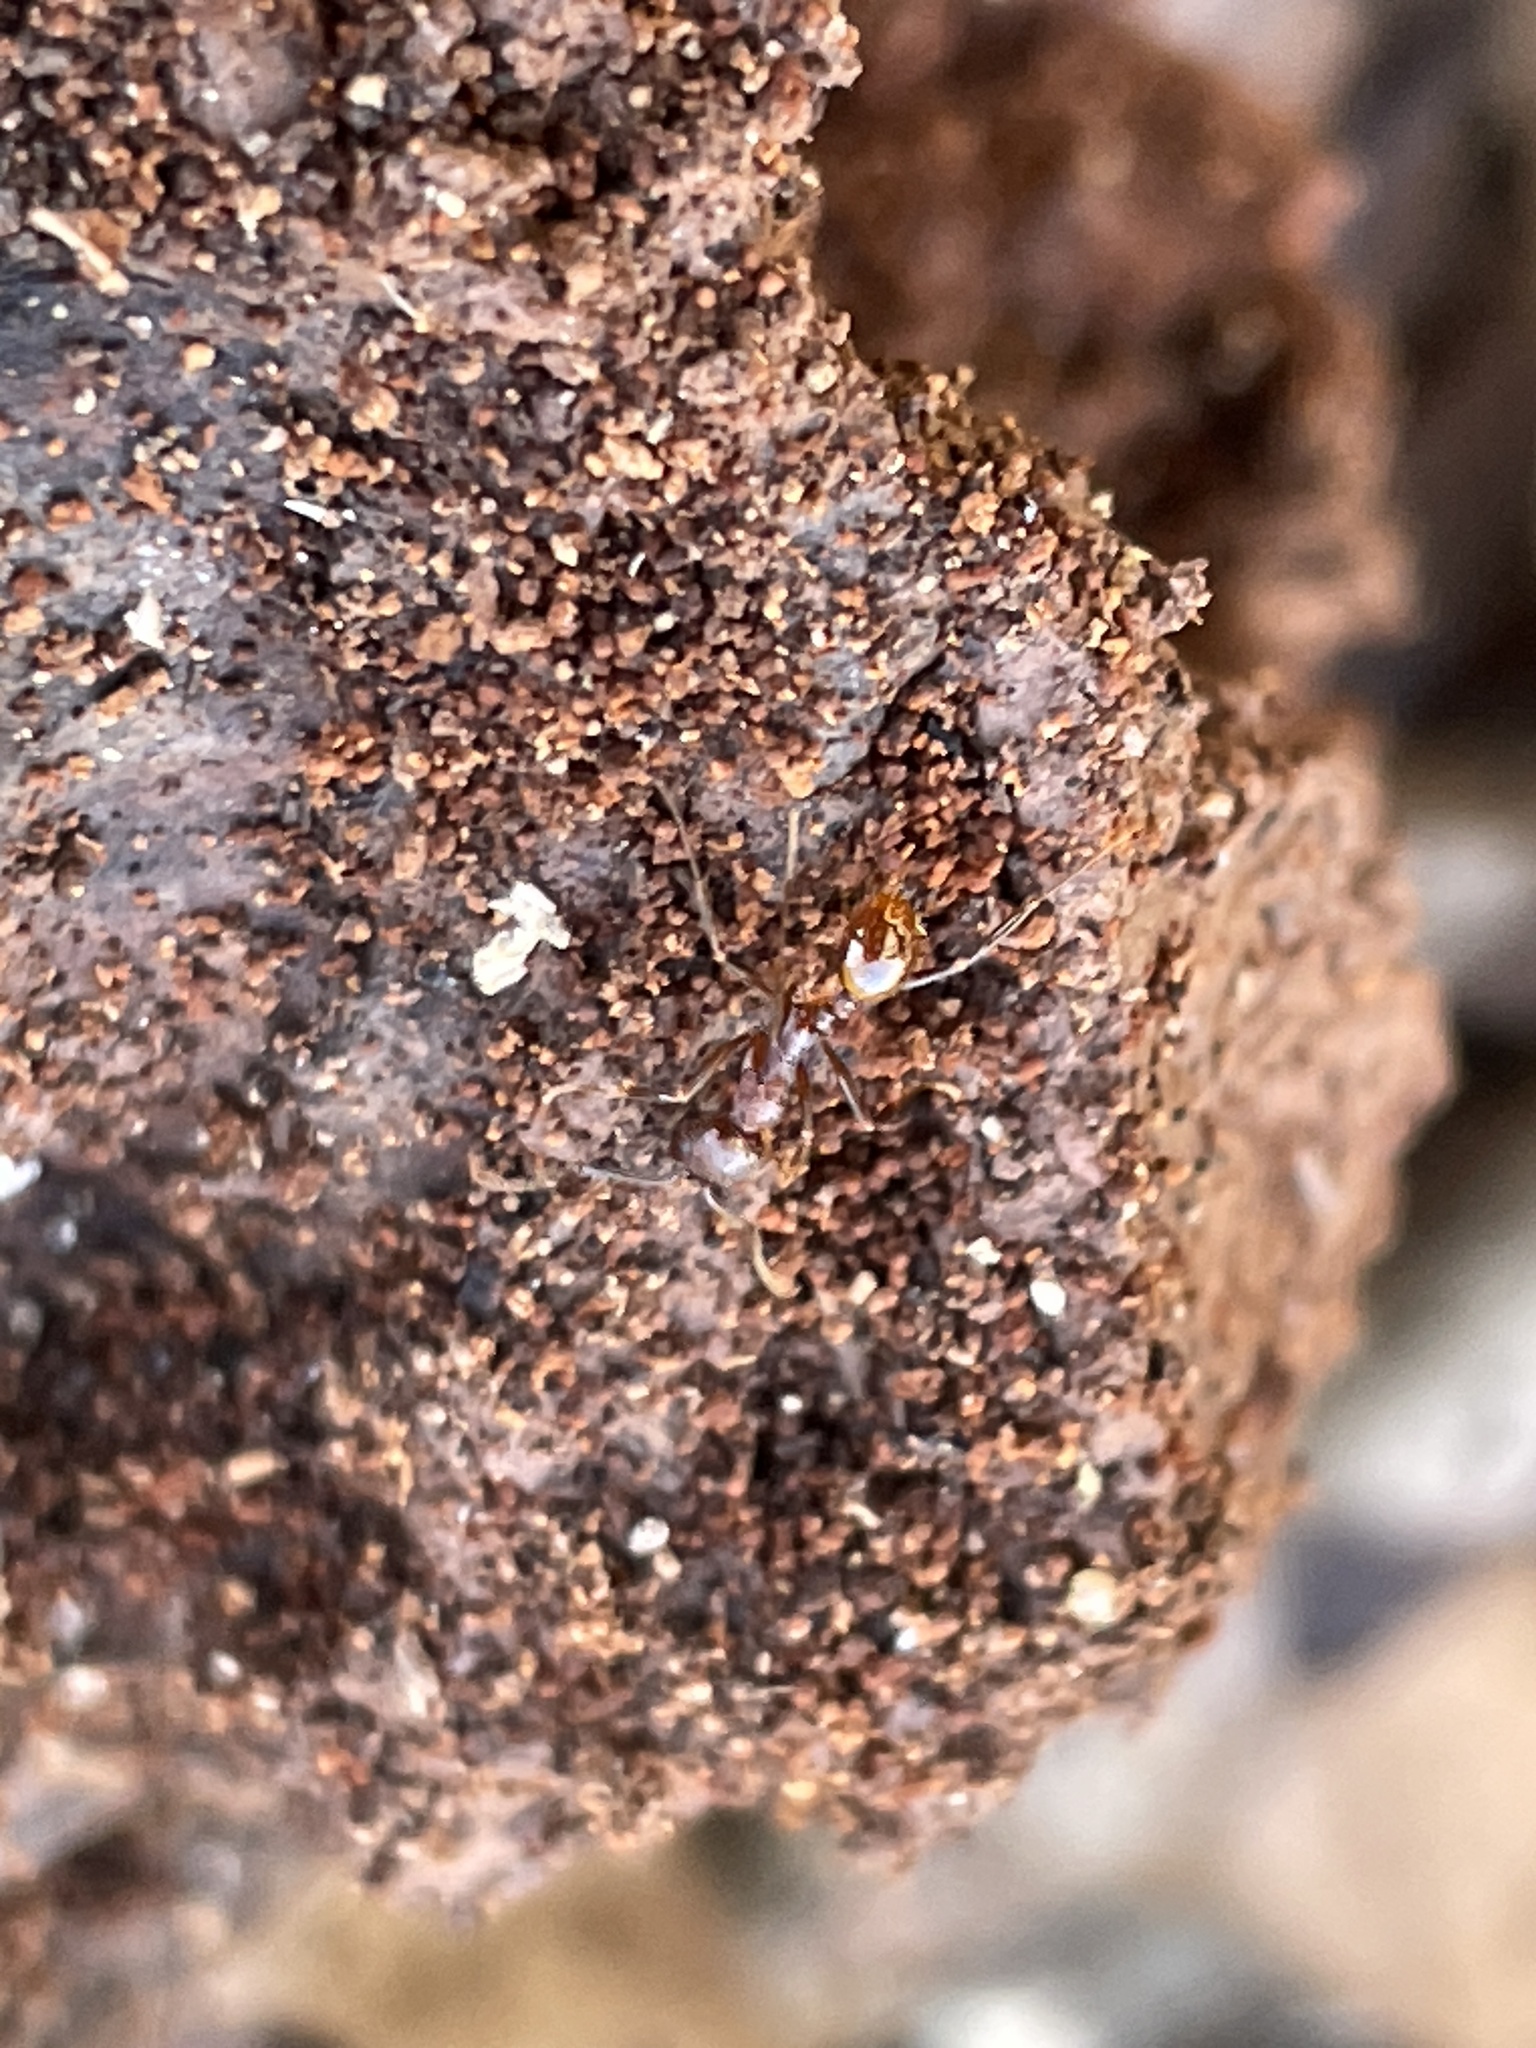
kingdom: Animalia
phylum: Arthropoda
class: Insecta
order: Hymenoptera
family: Formicidae
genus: Aphaenogaster
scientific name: Aphaenogaster fulva
